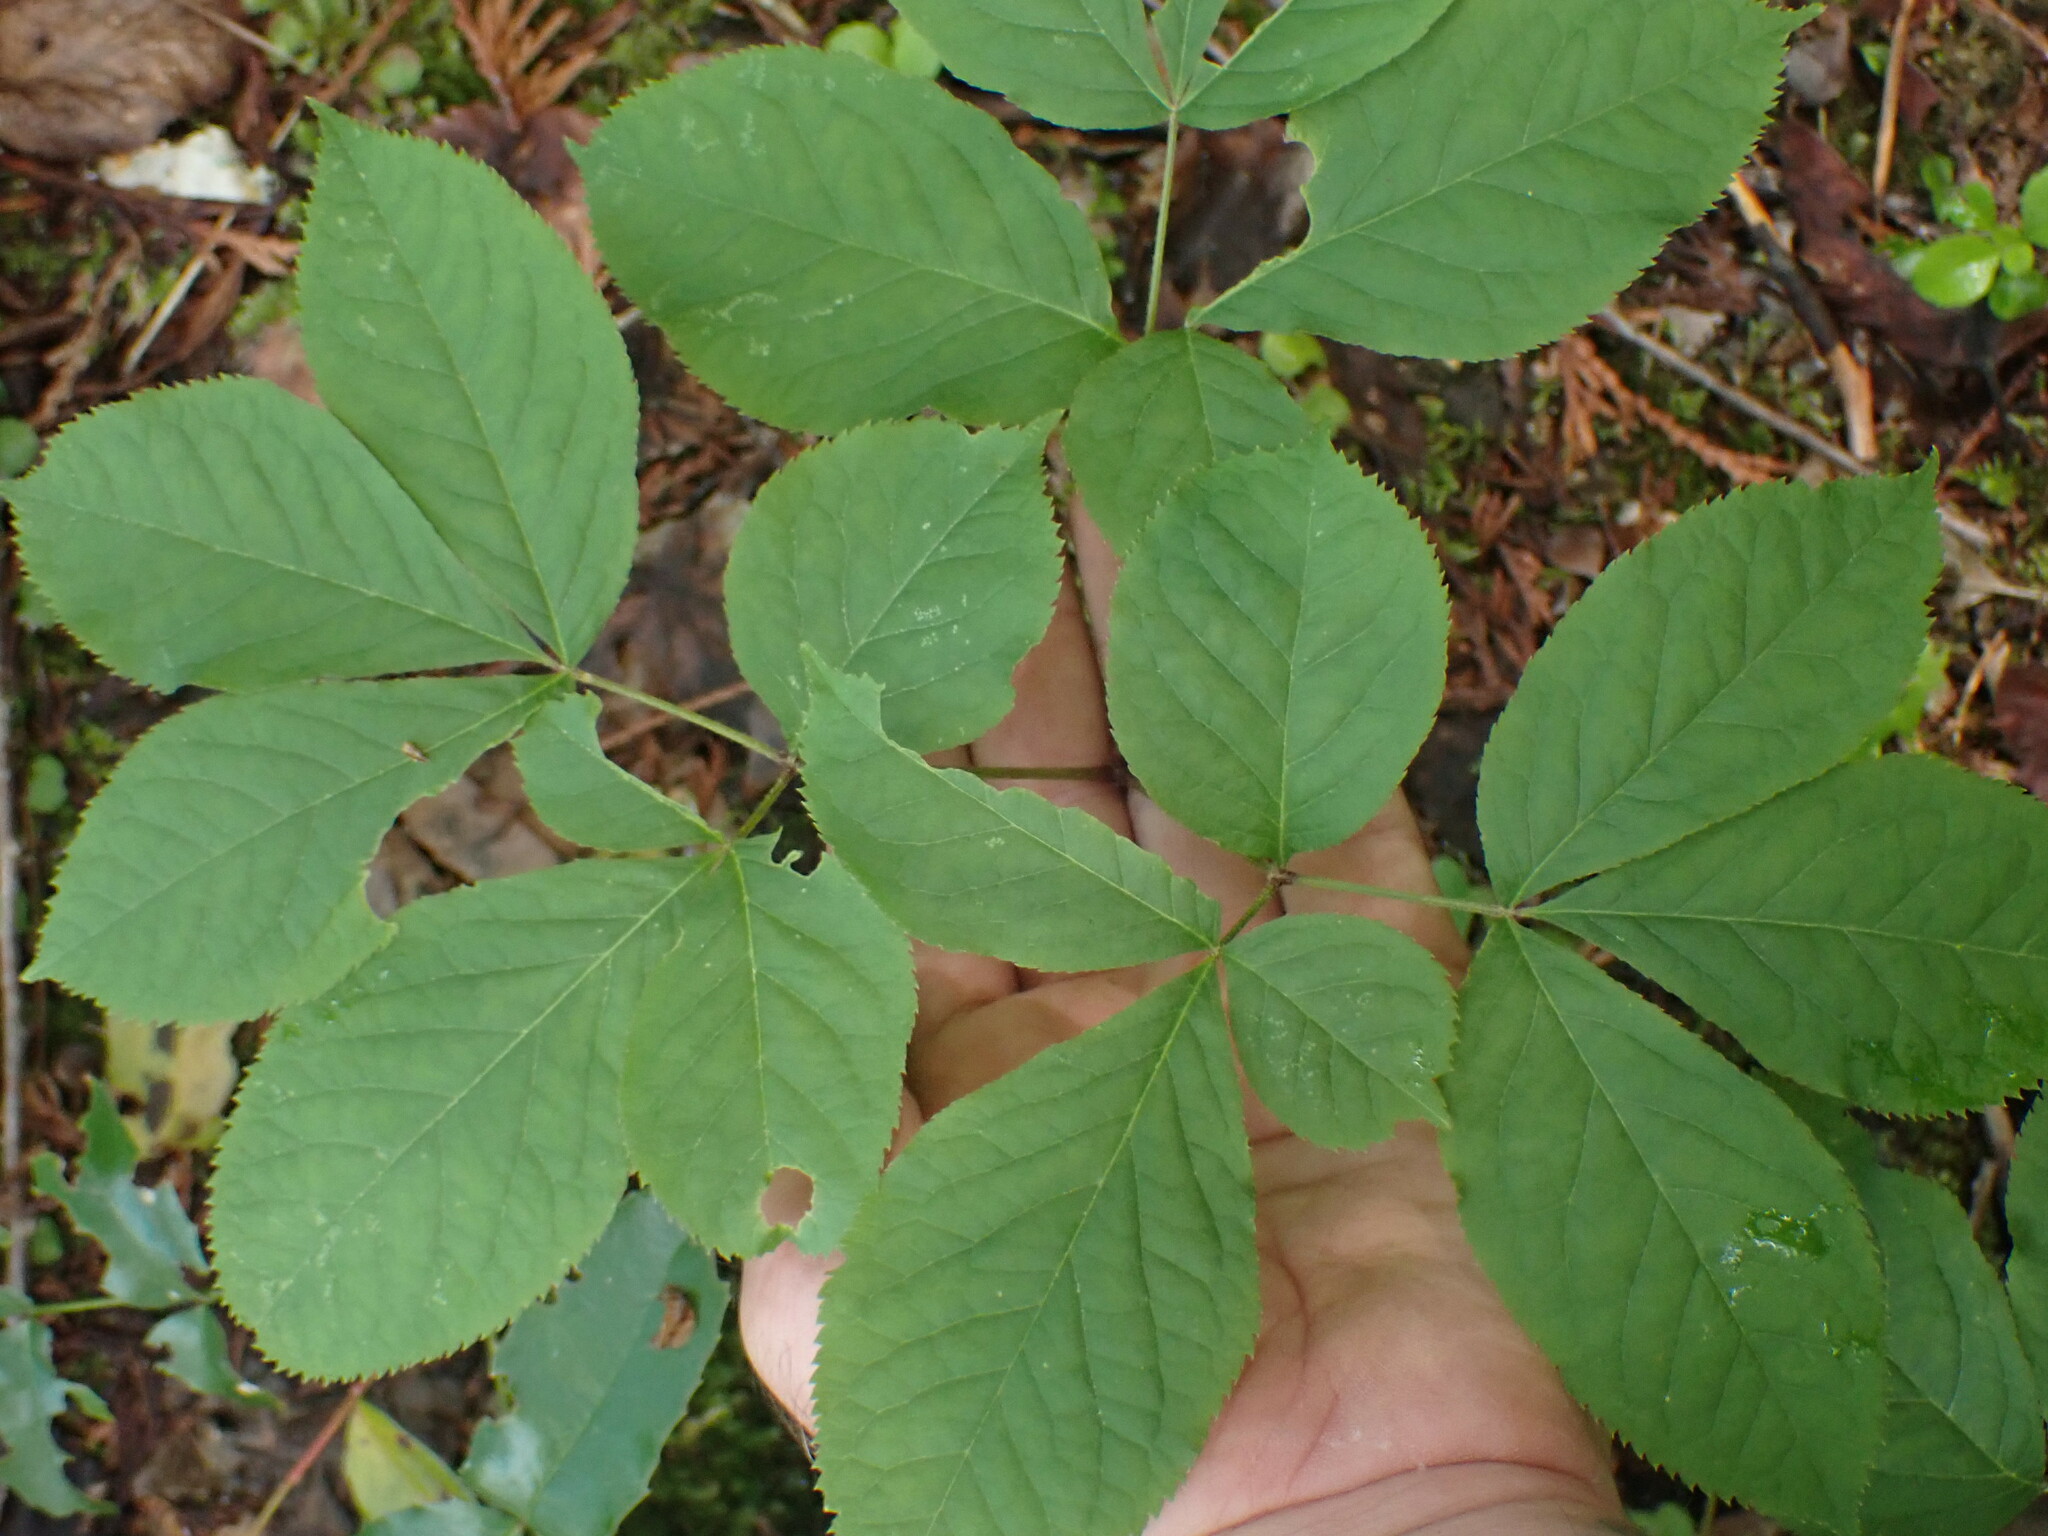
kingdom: Plantae
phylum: Tracheophyta
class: Magnoliopsida
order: Apiales
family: Araliaceae
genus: Aralia
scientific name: Aralia nudicaulis
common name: Wild sarsaparilla
